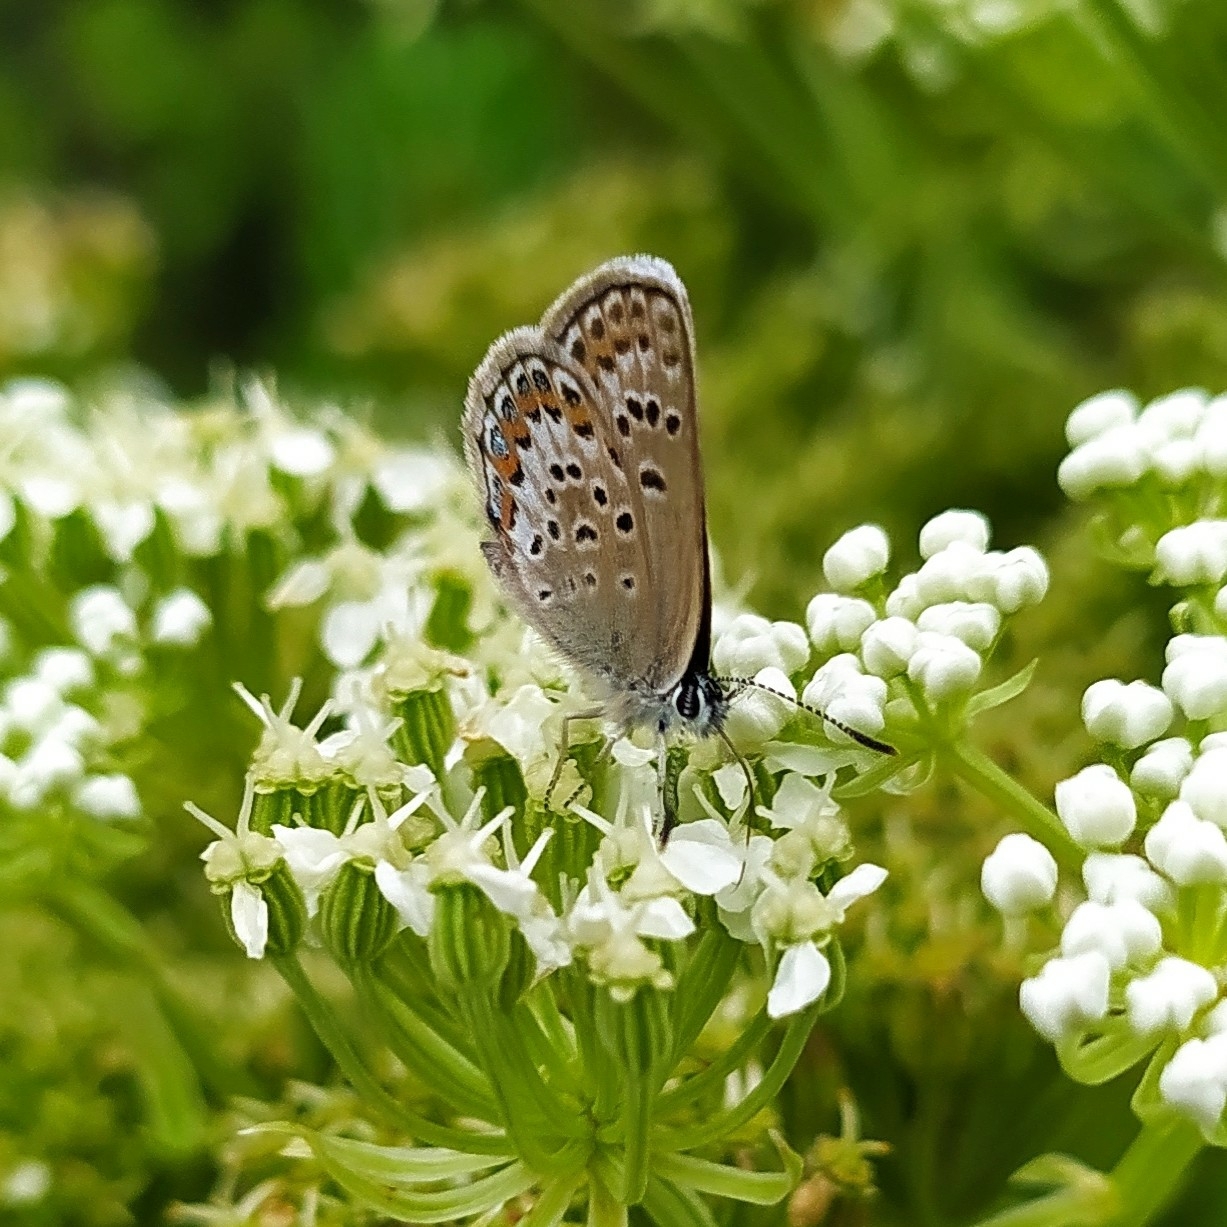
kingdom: Animalia
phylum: Arthropoda
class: Insecta
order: Lepidoptera
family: Lycaenidae
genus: Plebejus
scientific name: Plebejus argus
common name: Silver-studded blue
